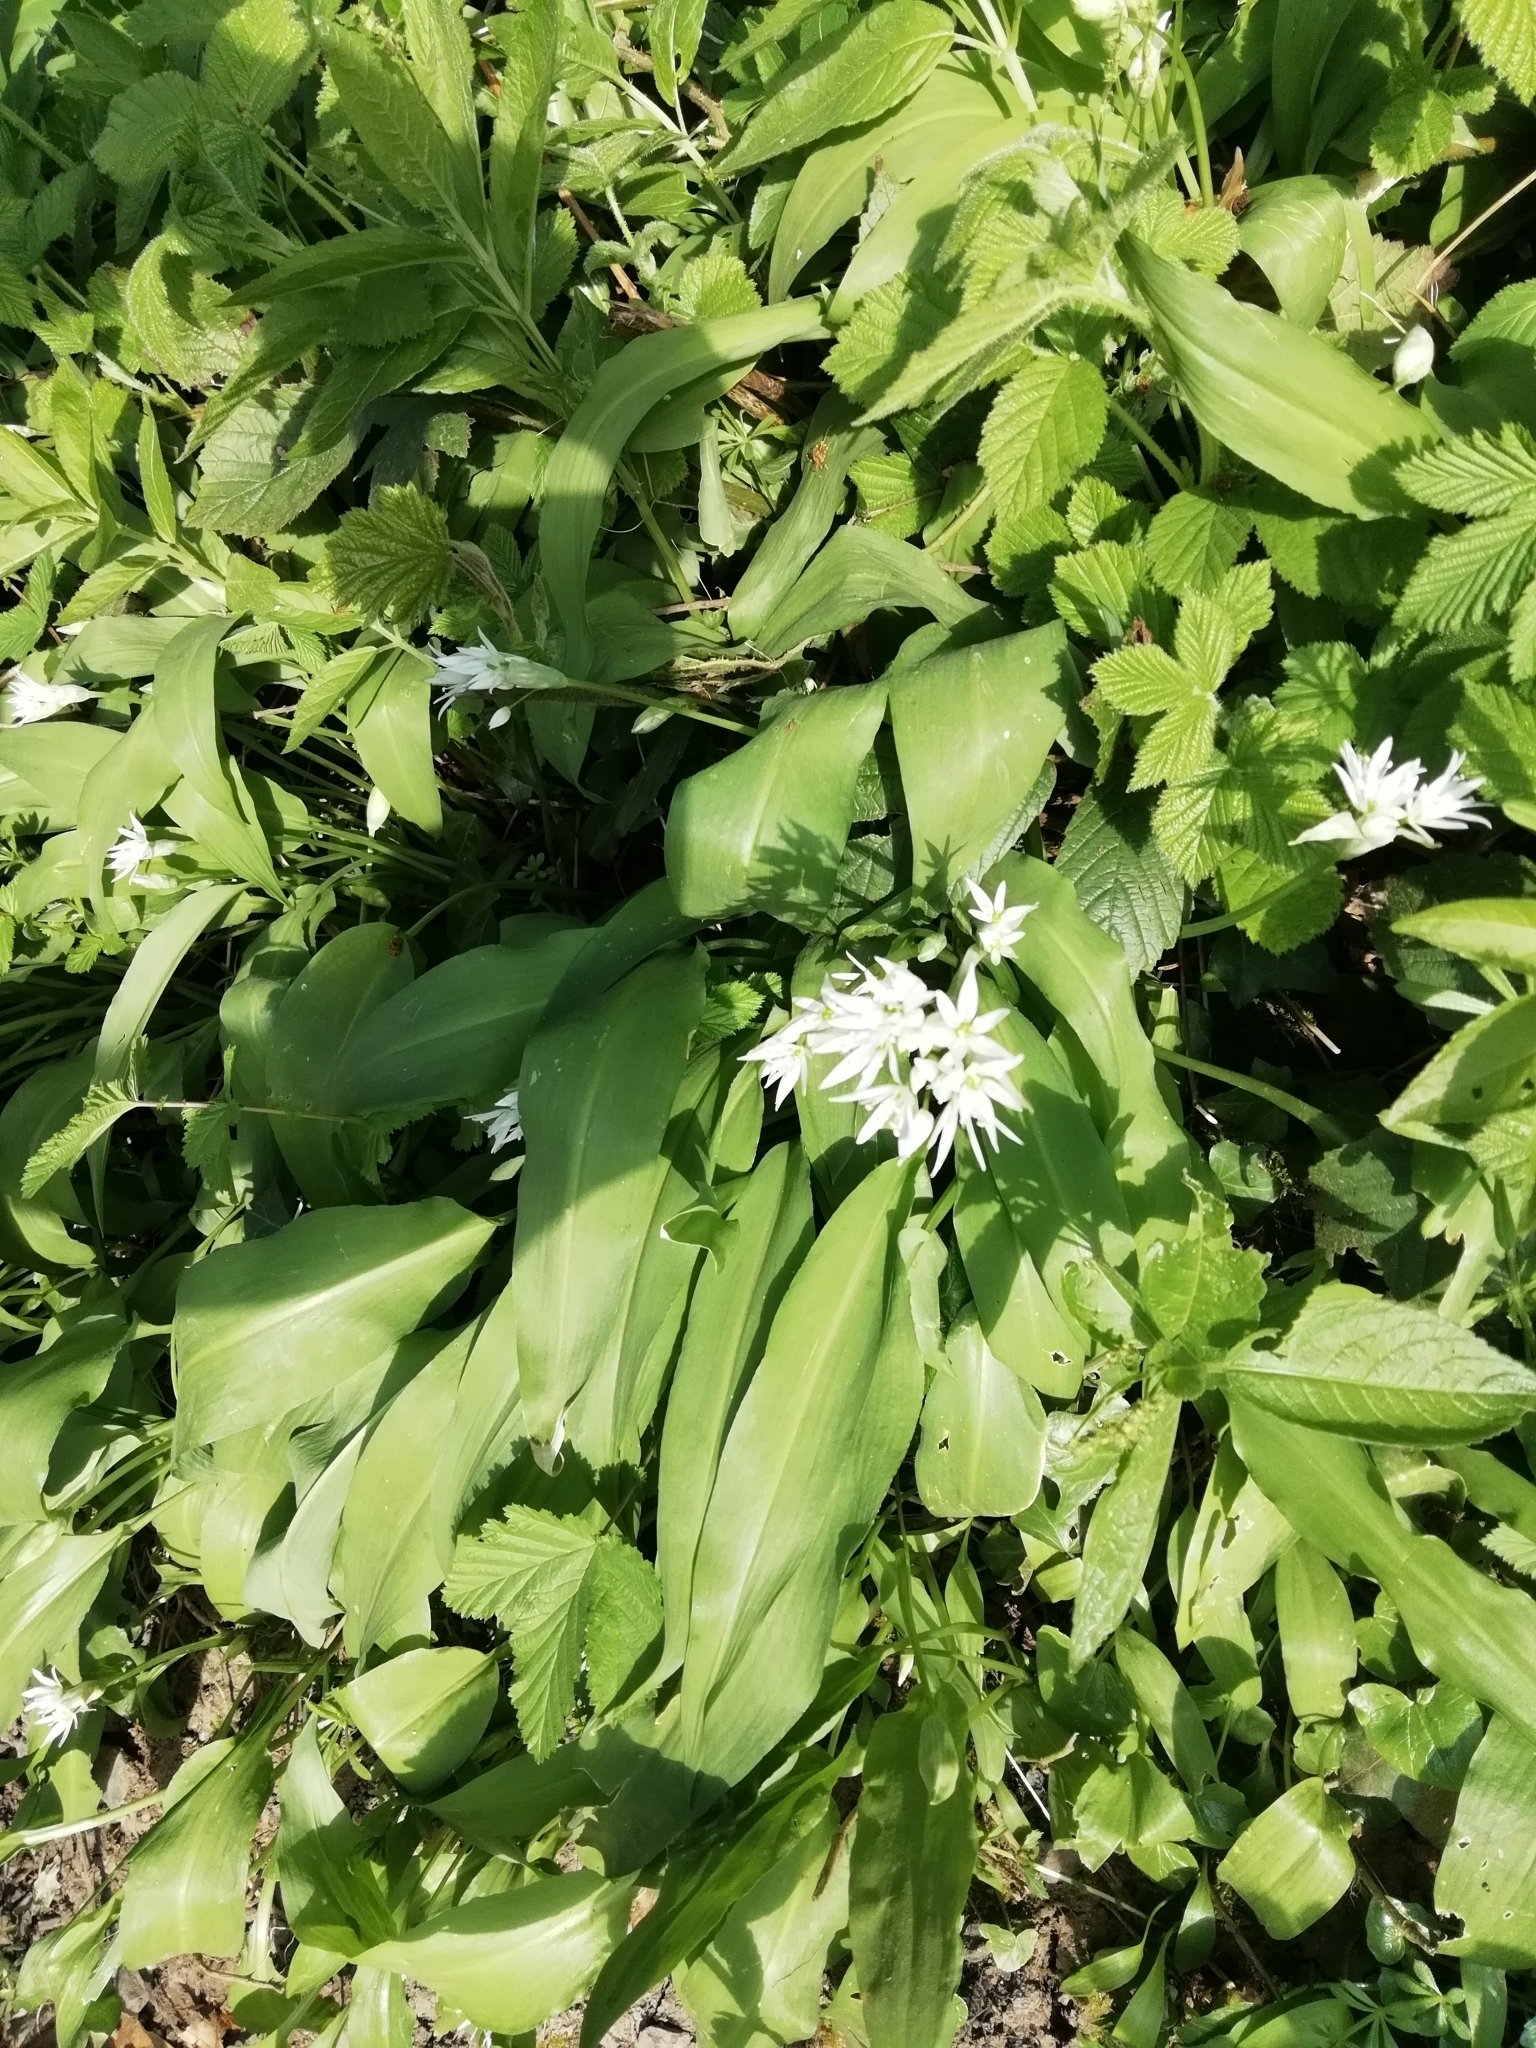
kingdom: Plantae
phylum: Tracheophyta
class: Liliopsida
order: Asparagales
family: Amaryllidaceae
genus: Allium
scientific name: Allium ursinum
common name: Ramsons
